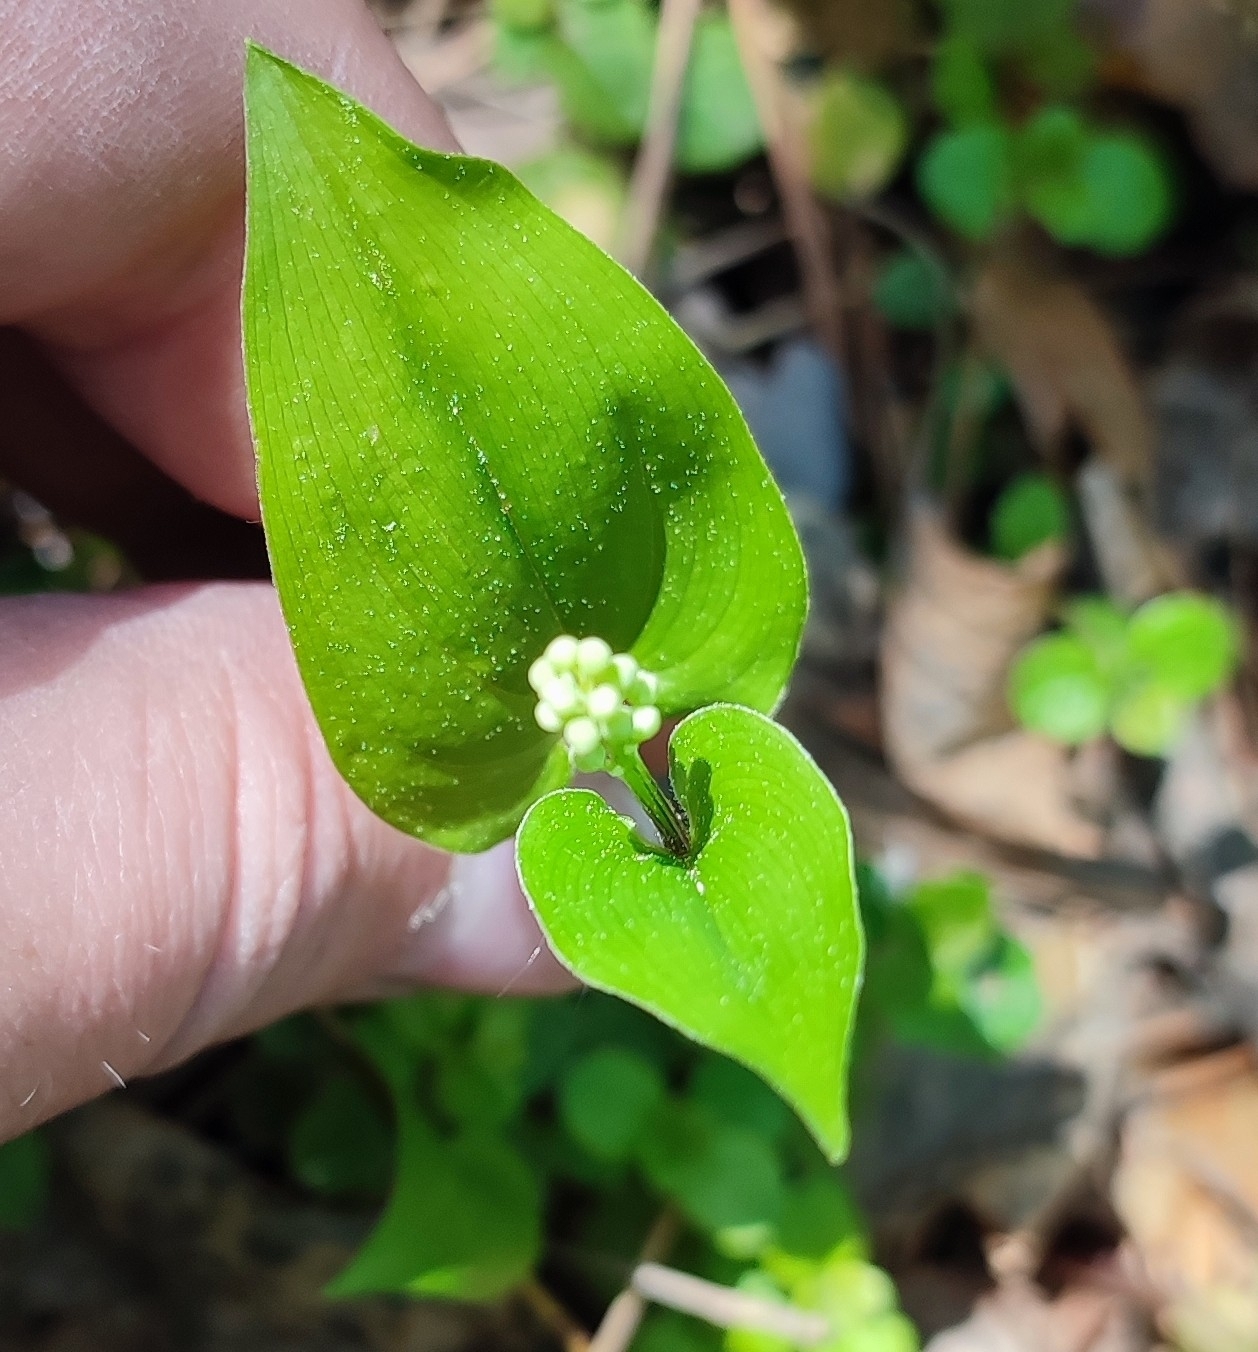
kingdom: Plantae
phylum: Tracheophyta
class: Liliopsida
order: Asparagales
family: Asparagaceae
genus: Maianthemum
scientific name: Maianthemum bifolium
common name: May lily
